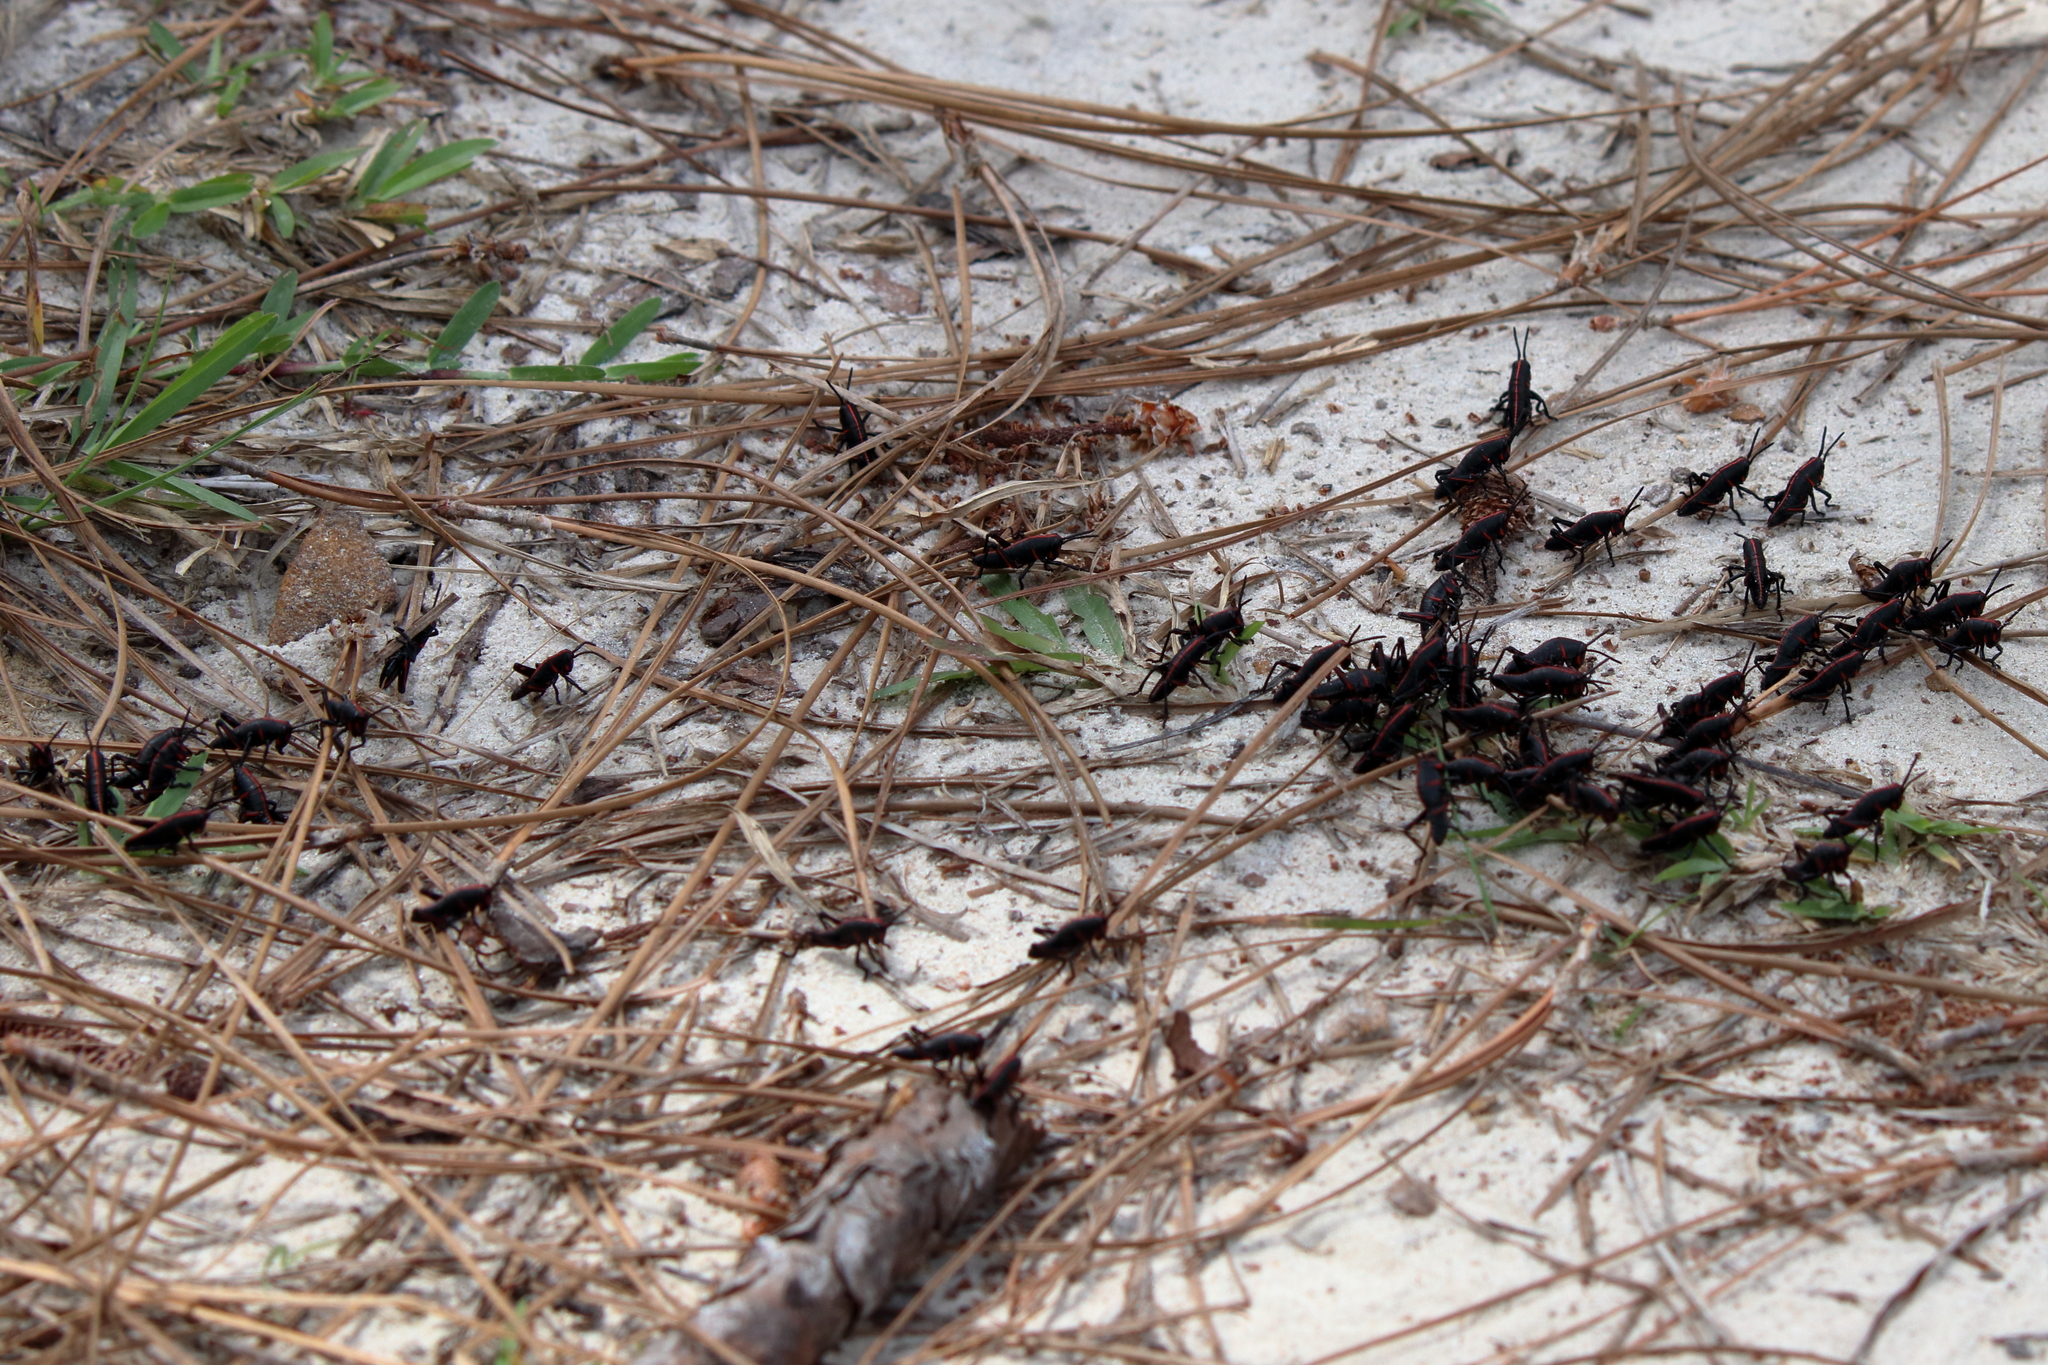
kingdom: Animalia
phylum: Arthropoda
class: Insecta
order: Orthoptera
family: Romaleidae
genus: Romalea
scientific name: Romalea microptera
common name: Eastern lubber grasshopper
